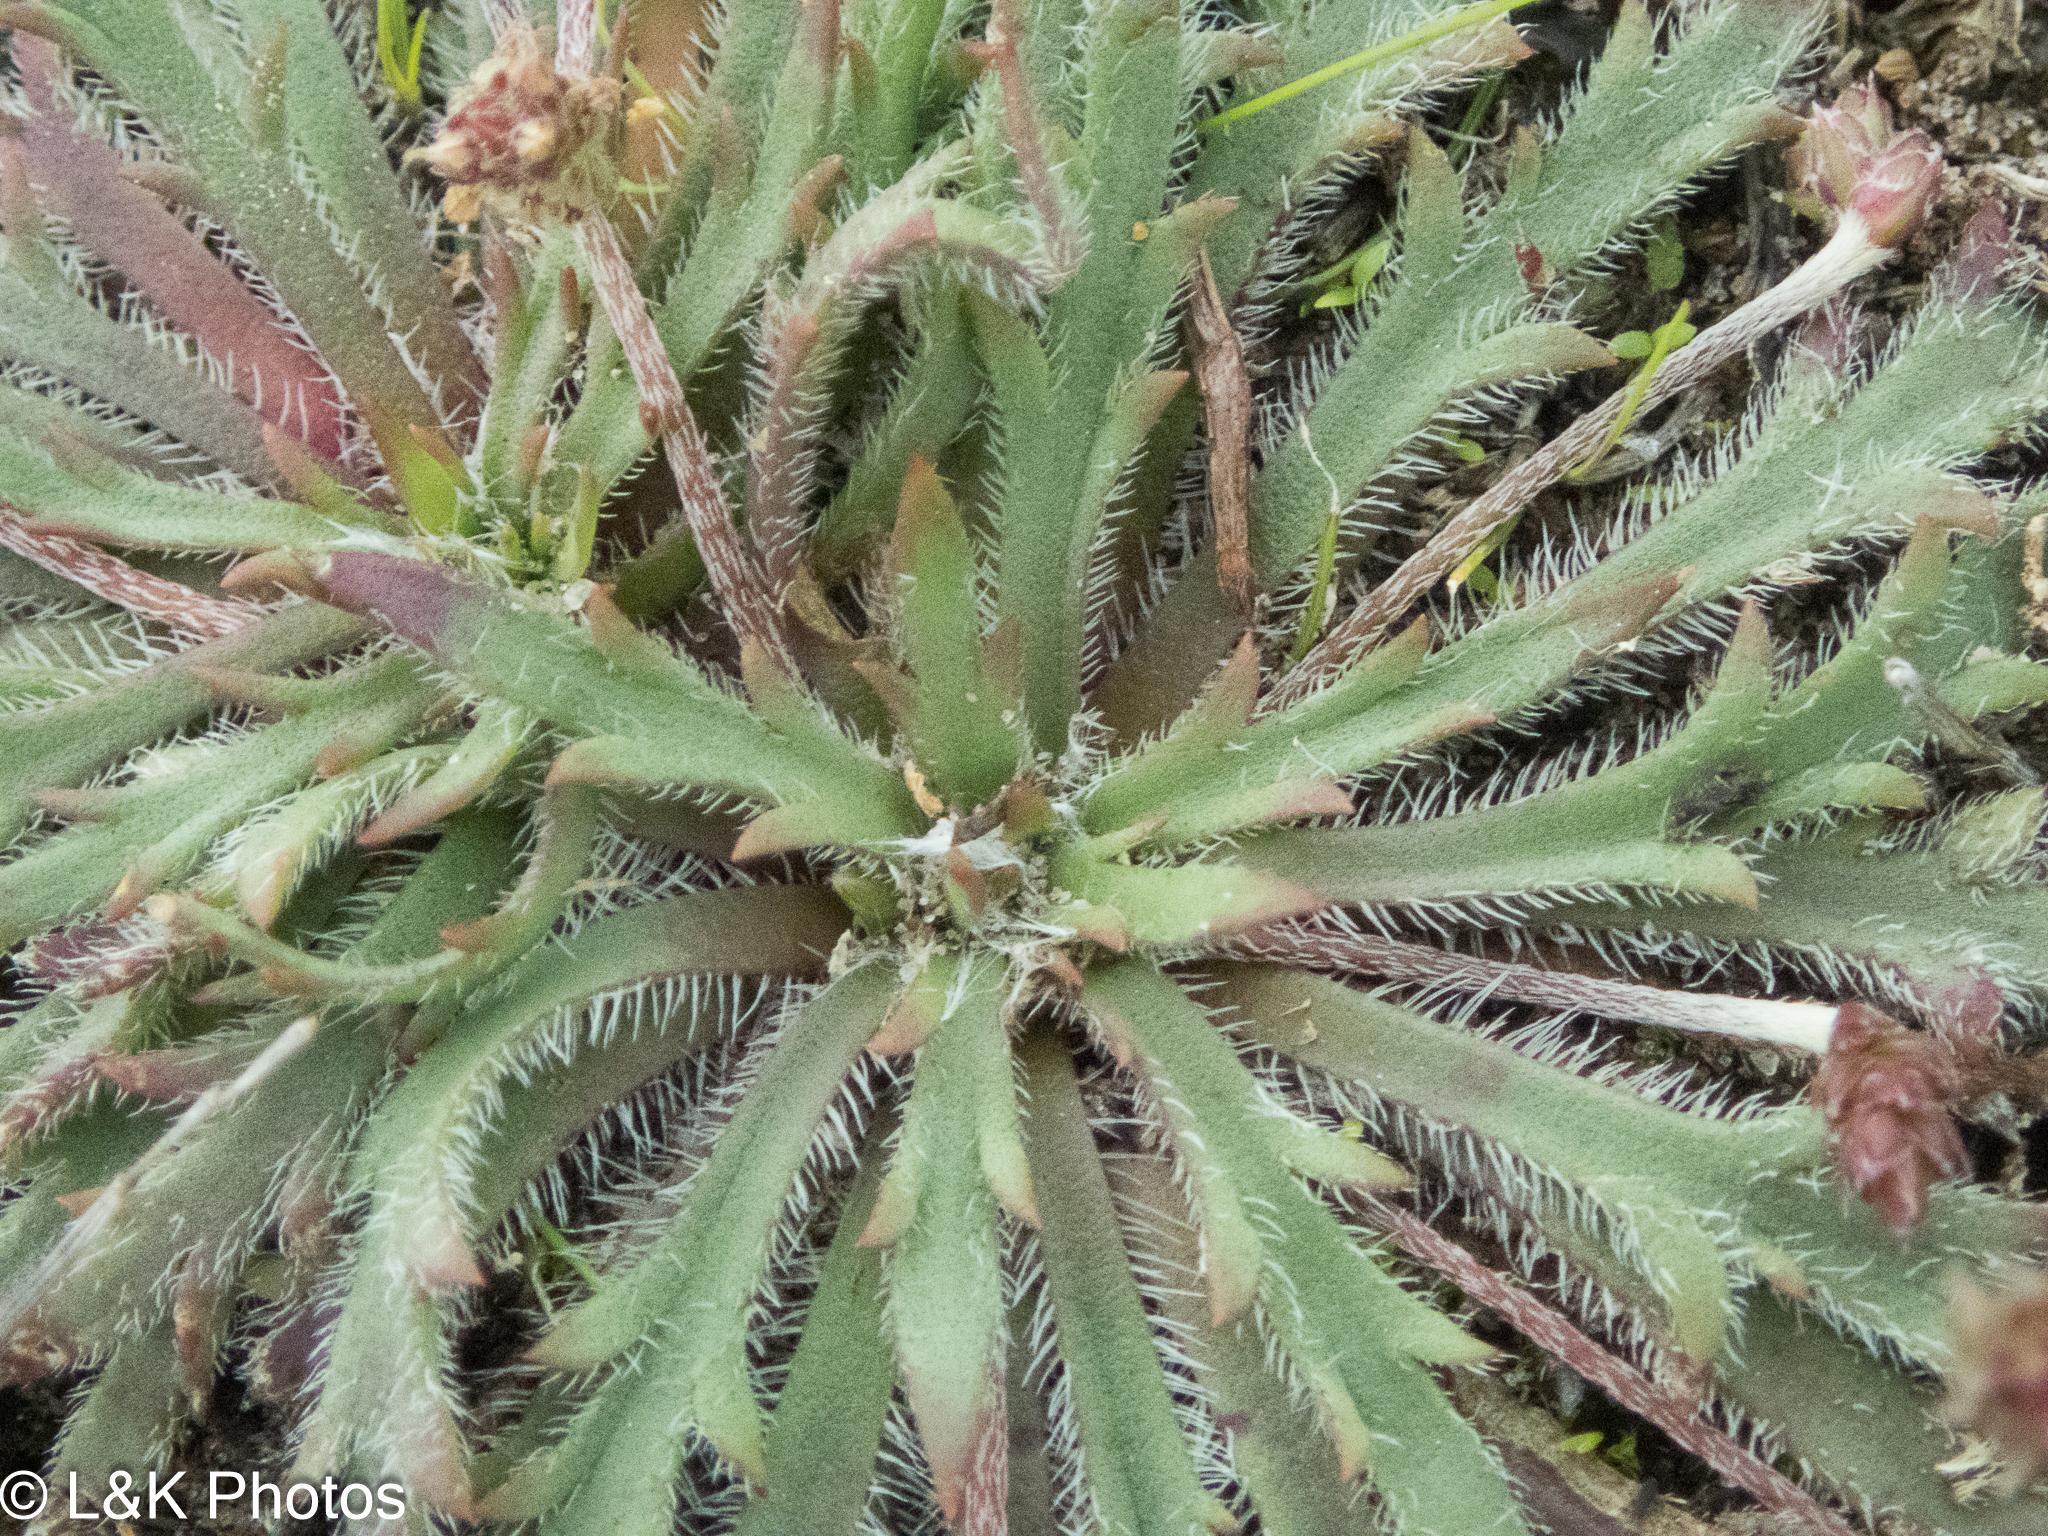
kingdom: Plantae
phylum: Tracheophyta
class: Magnoliopsida
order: Lamiales
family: Plantaginaceae
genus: Plantago
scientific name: Plantago coronopus
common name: Buck's-horn plantain
